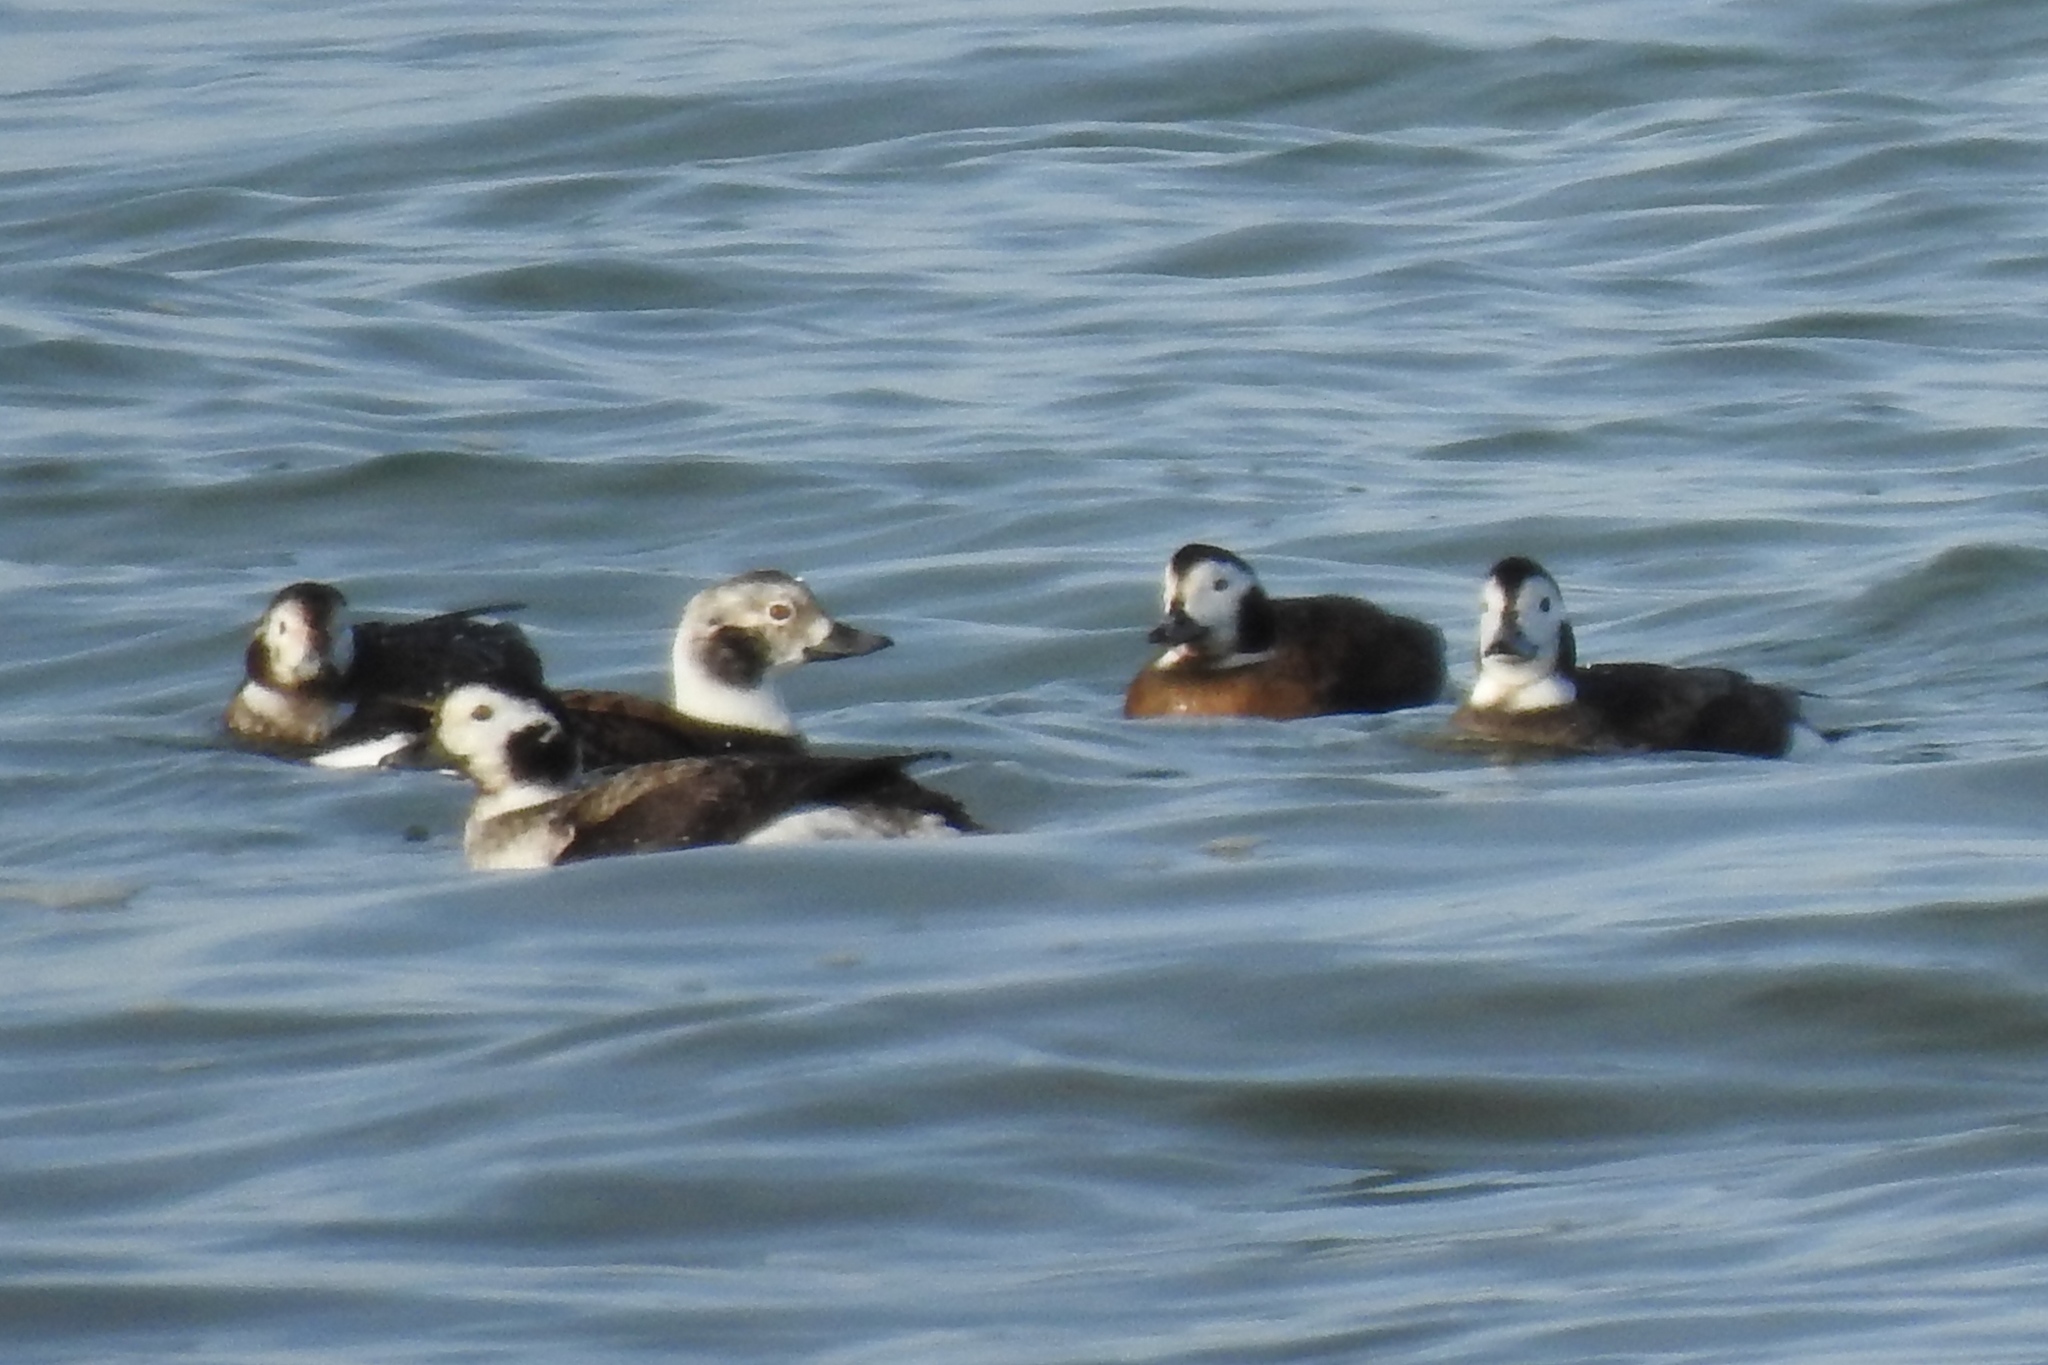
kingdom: Animalia
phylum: Chordata
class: Aves
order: Anseriformes
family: Anatidae
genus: Clangula
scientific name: Clangula hyemalis
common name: Long-tailed duck
